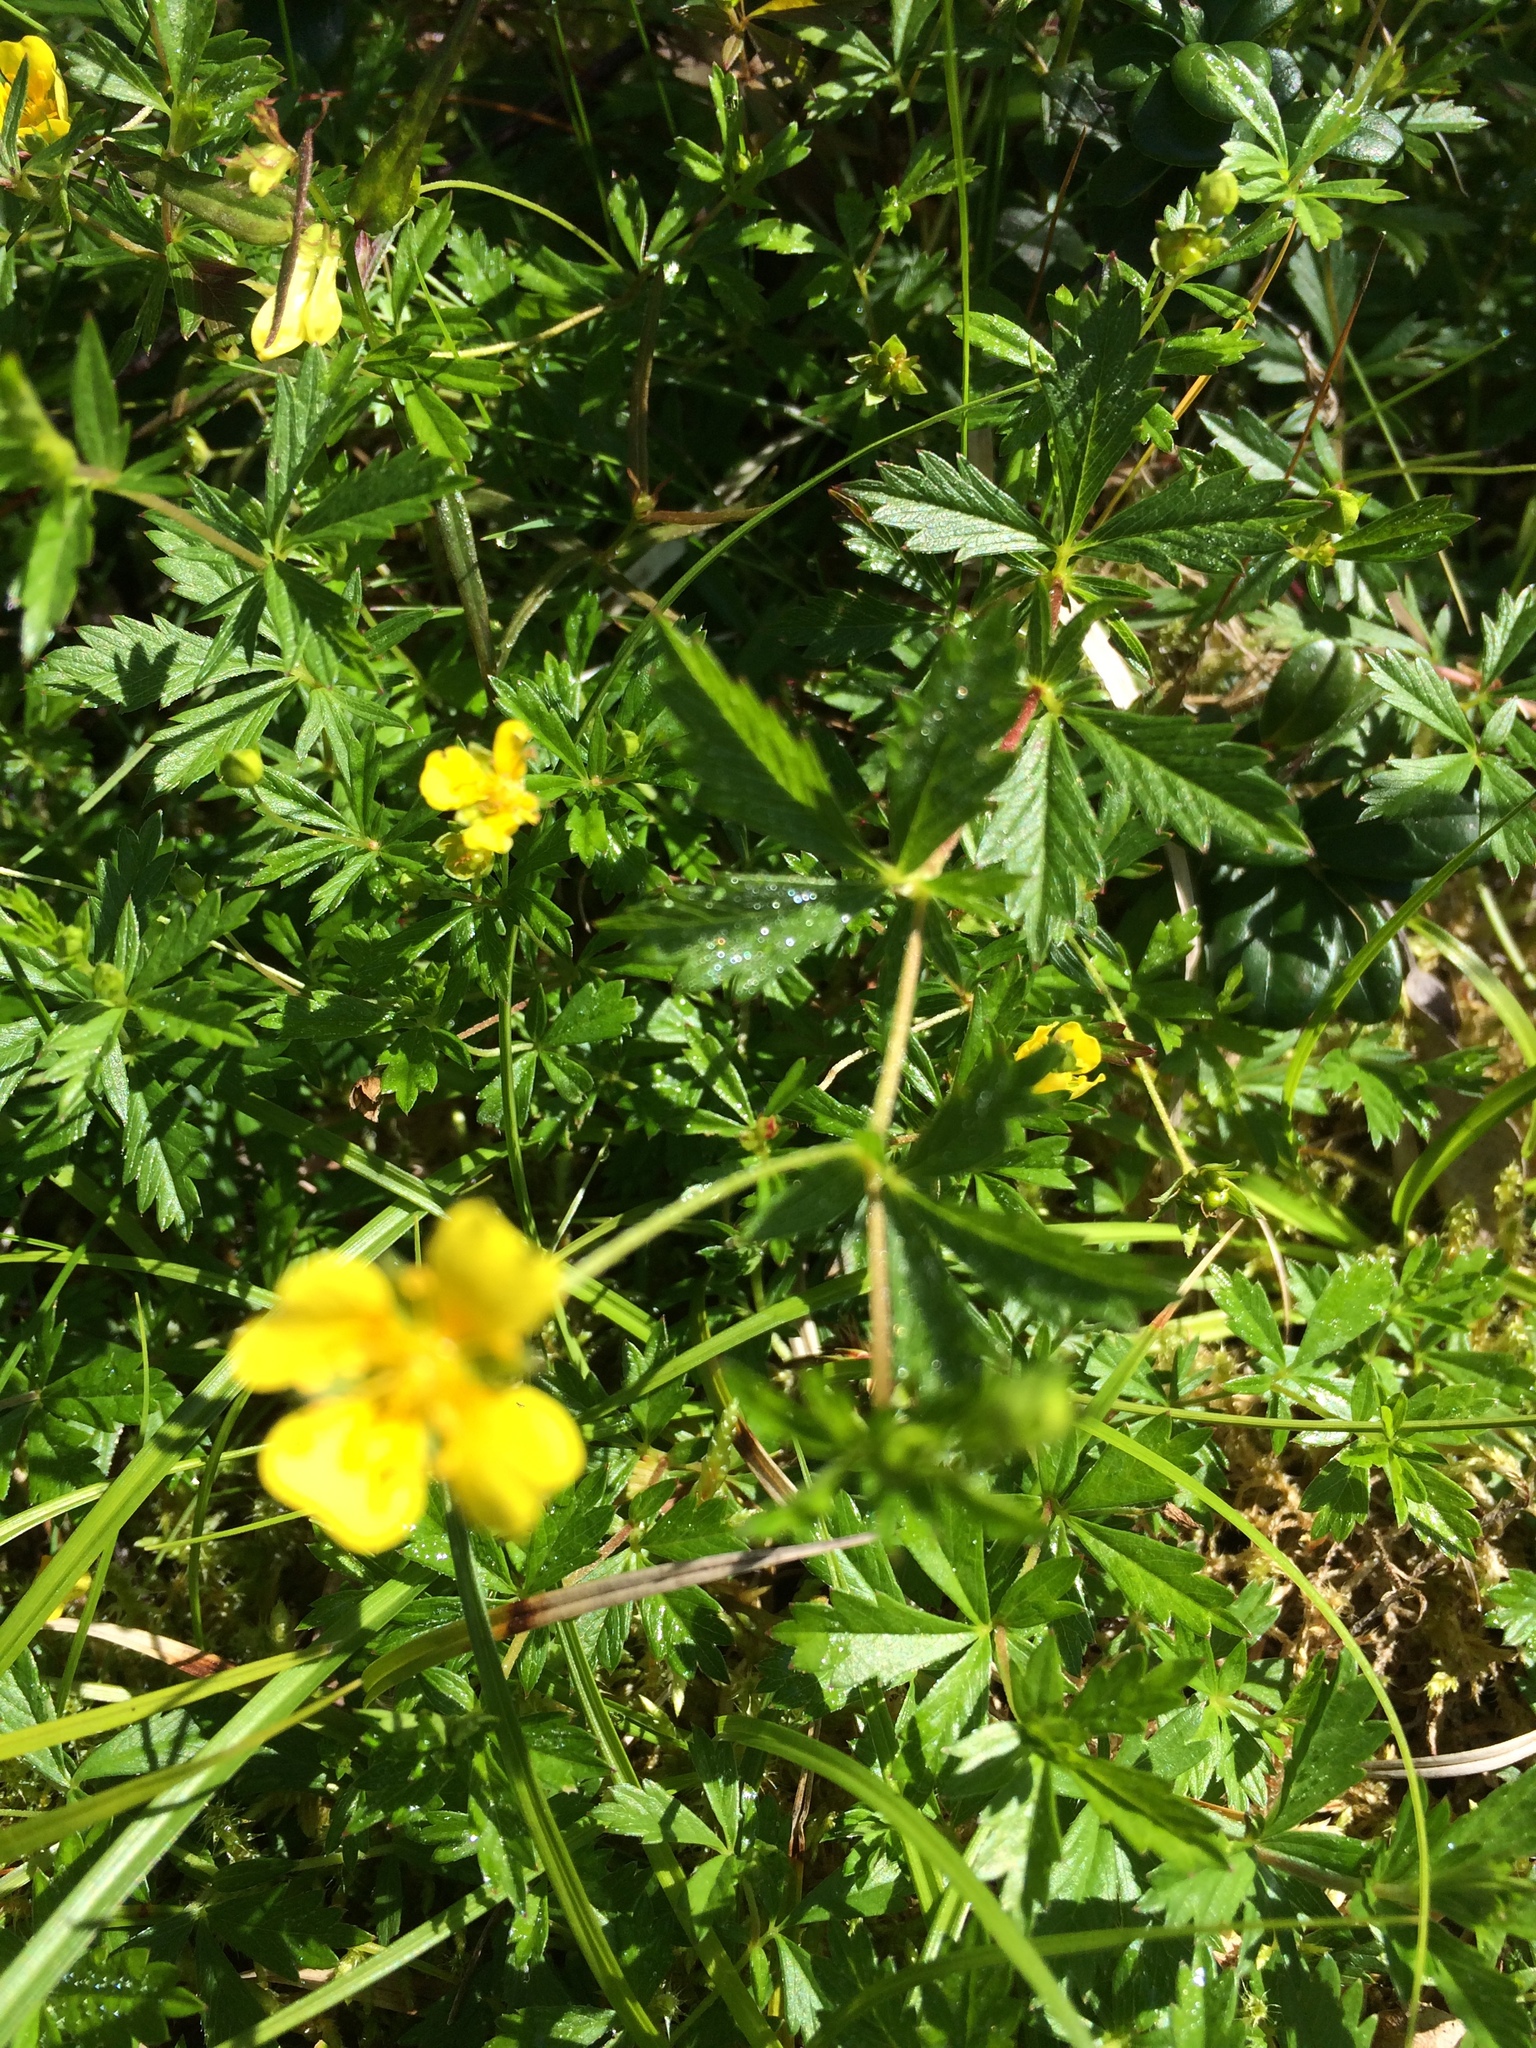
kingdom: Plantae
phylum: Tracheophyta
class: Magnoliopsida
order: Rosales
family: Rosaceae
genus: Potentilla
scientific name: Potentilla erecta
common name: Tormentil
